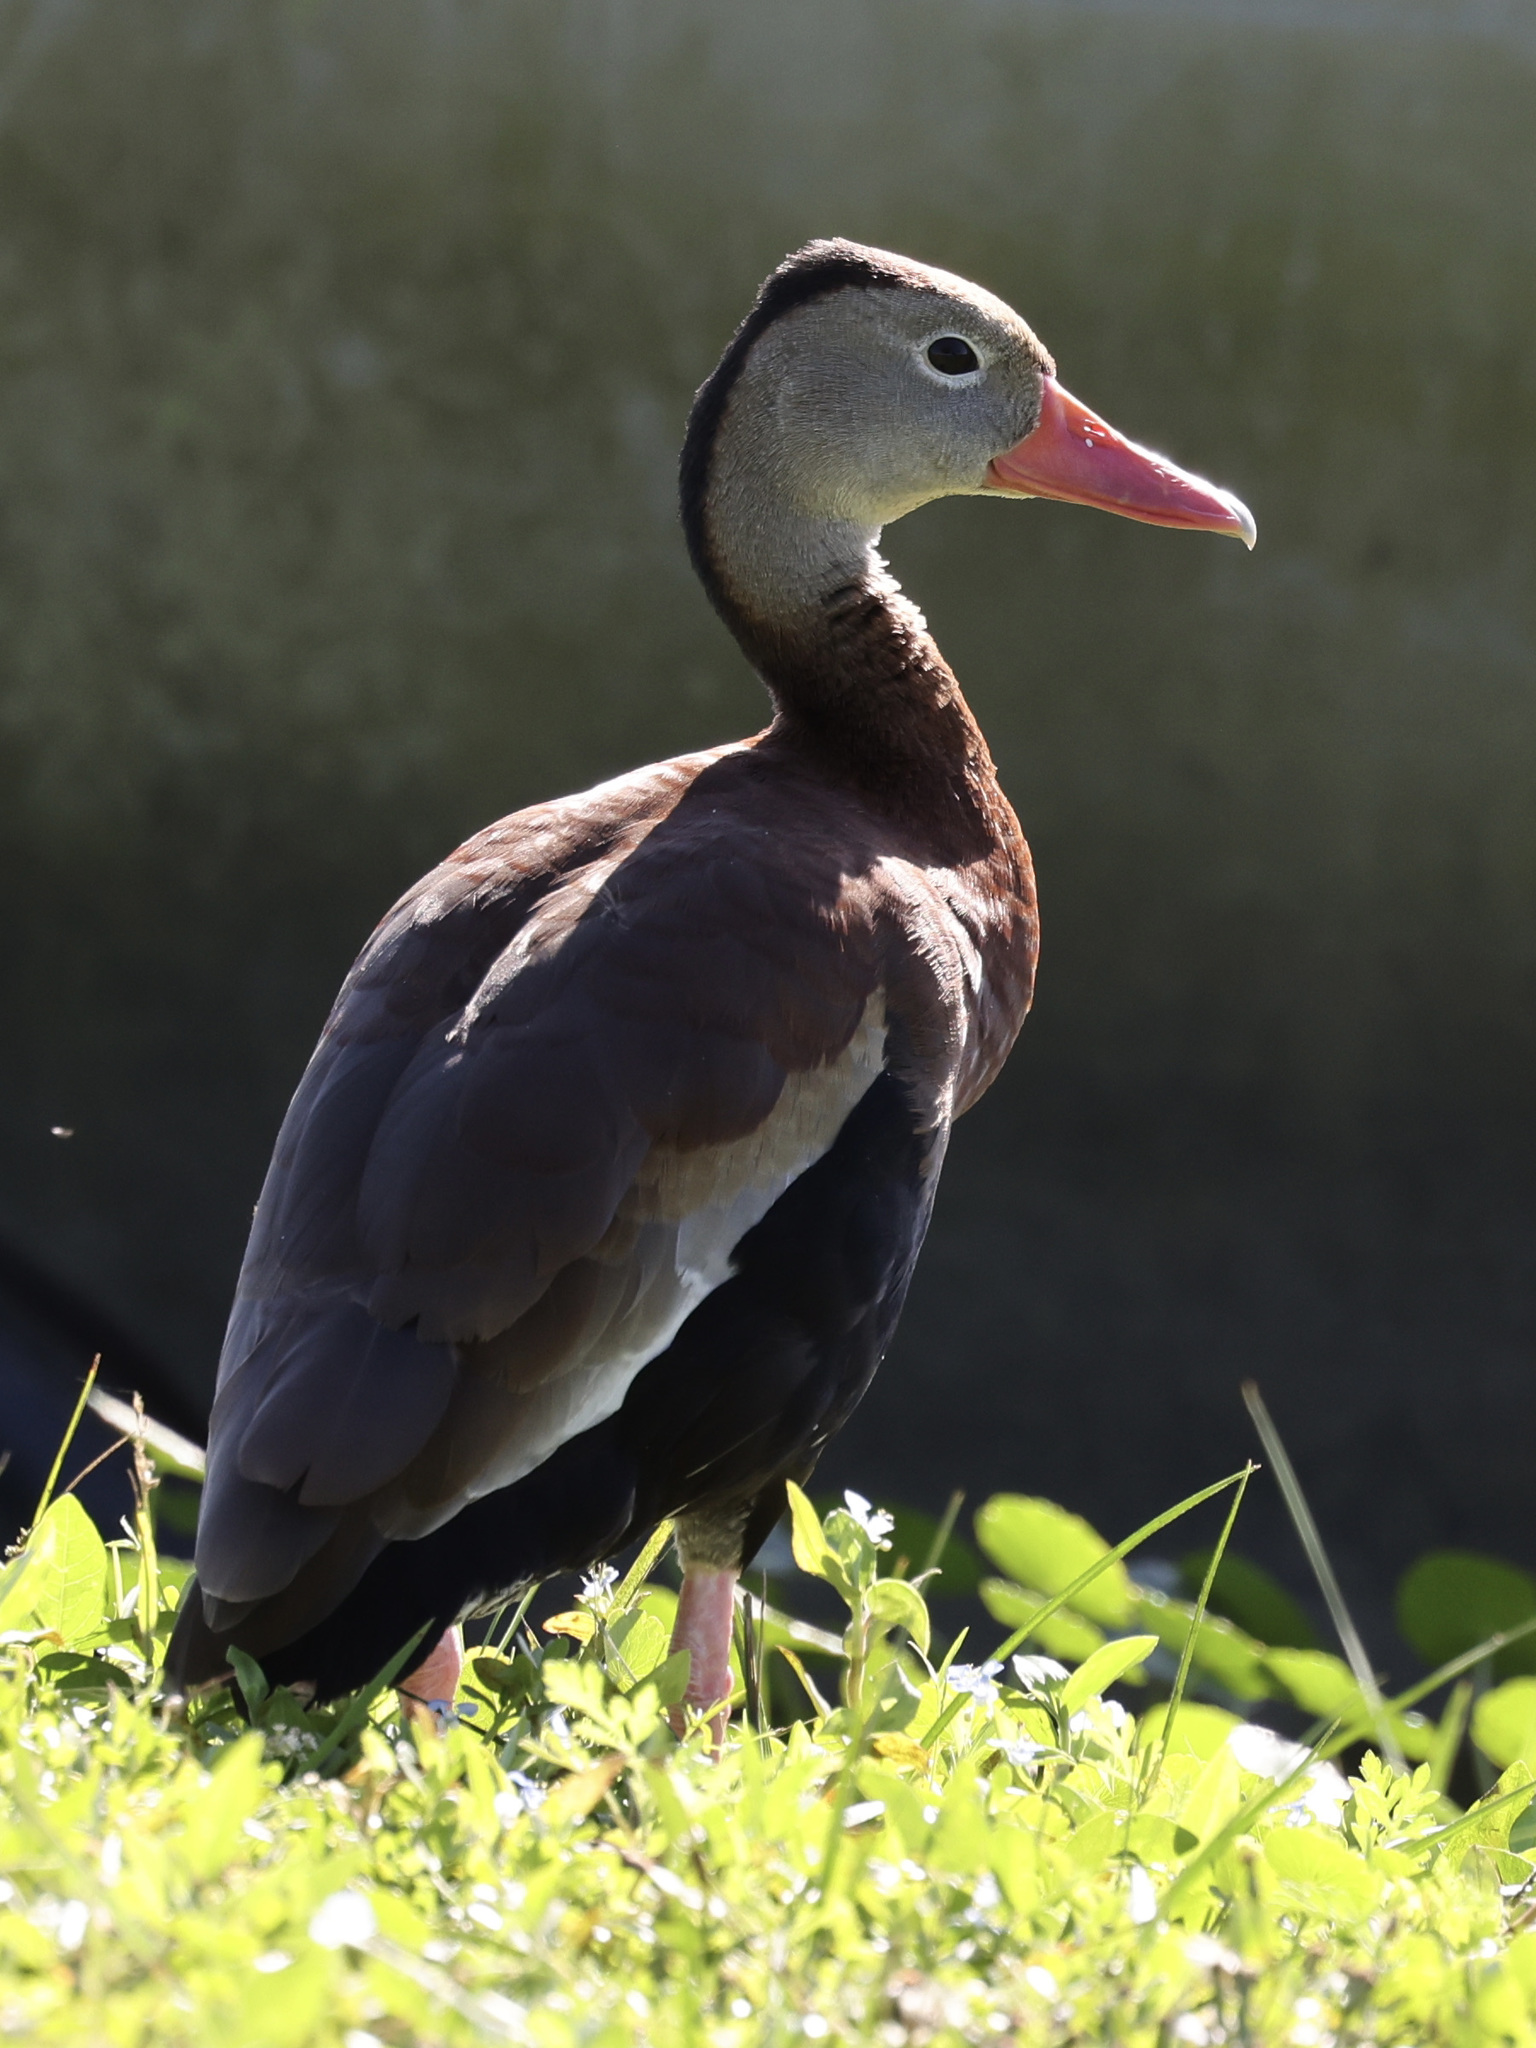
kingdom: Animalia
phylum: Chordata
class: Aves
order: Anseriformes
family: Anatidae
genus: Dendrocygna
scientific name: Dendrocygna autumnalis
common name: Black-bellied whistling duck
